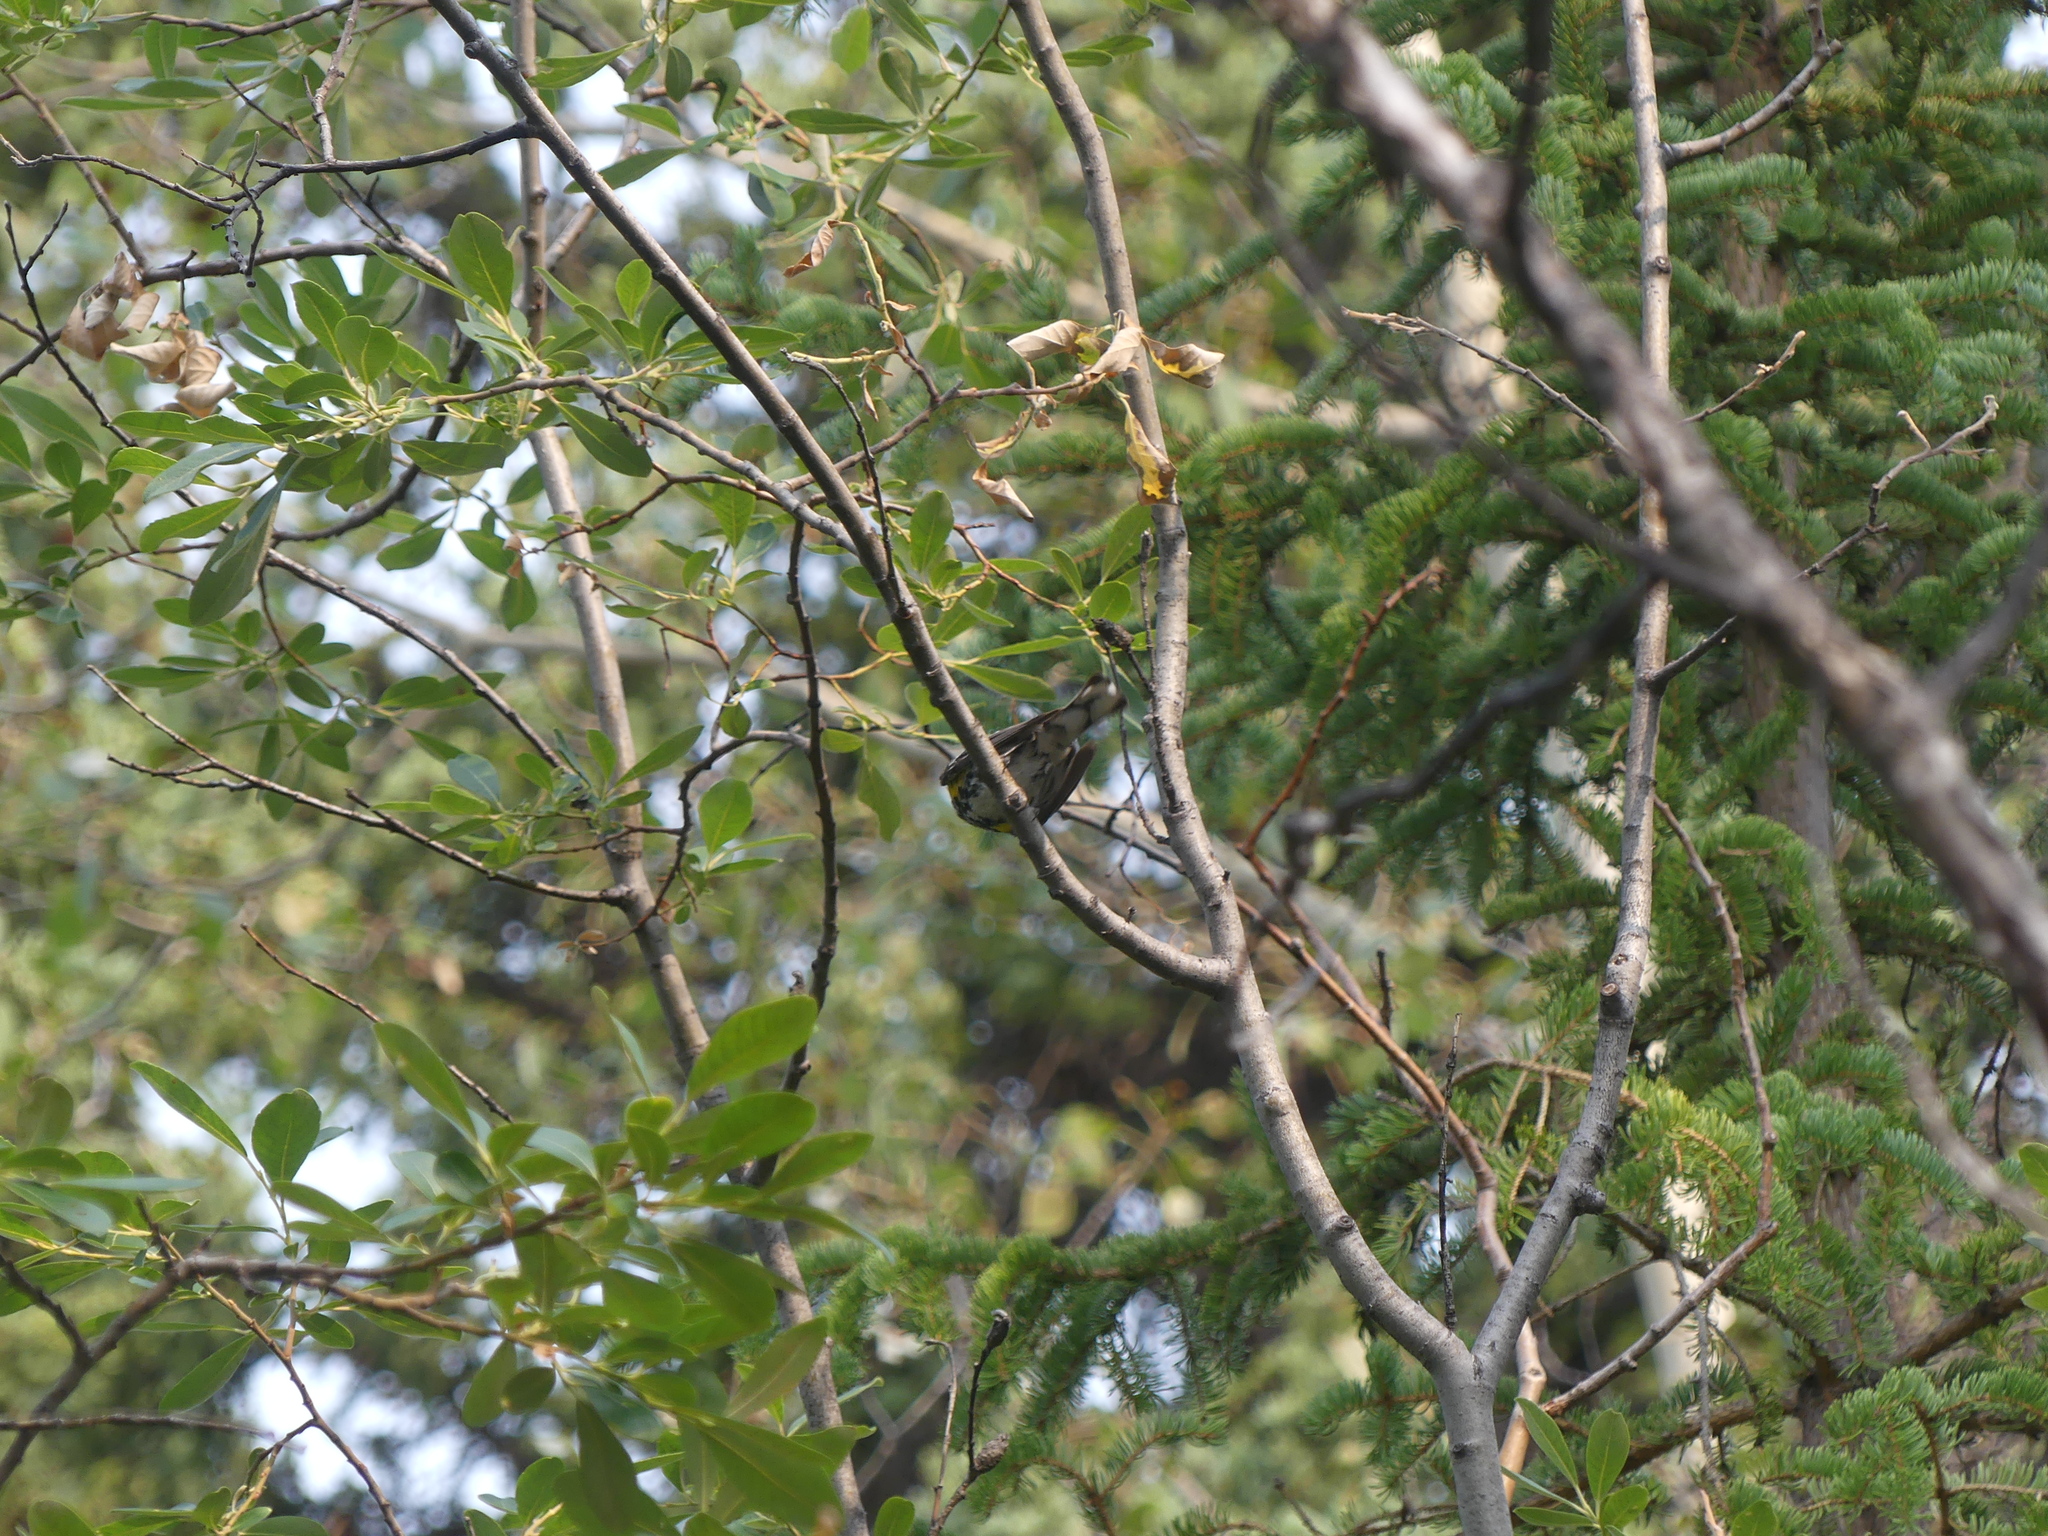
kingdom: Animalia
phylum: Chordata
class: Aves
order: Passeriformes
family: Parulidae
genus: Setophaga
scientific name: Setophaga coronata
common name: Myrtle warbler
